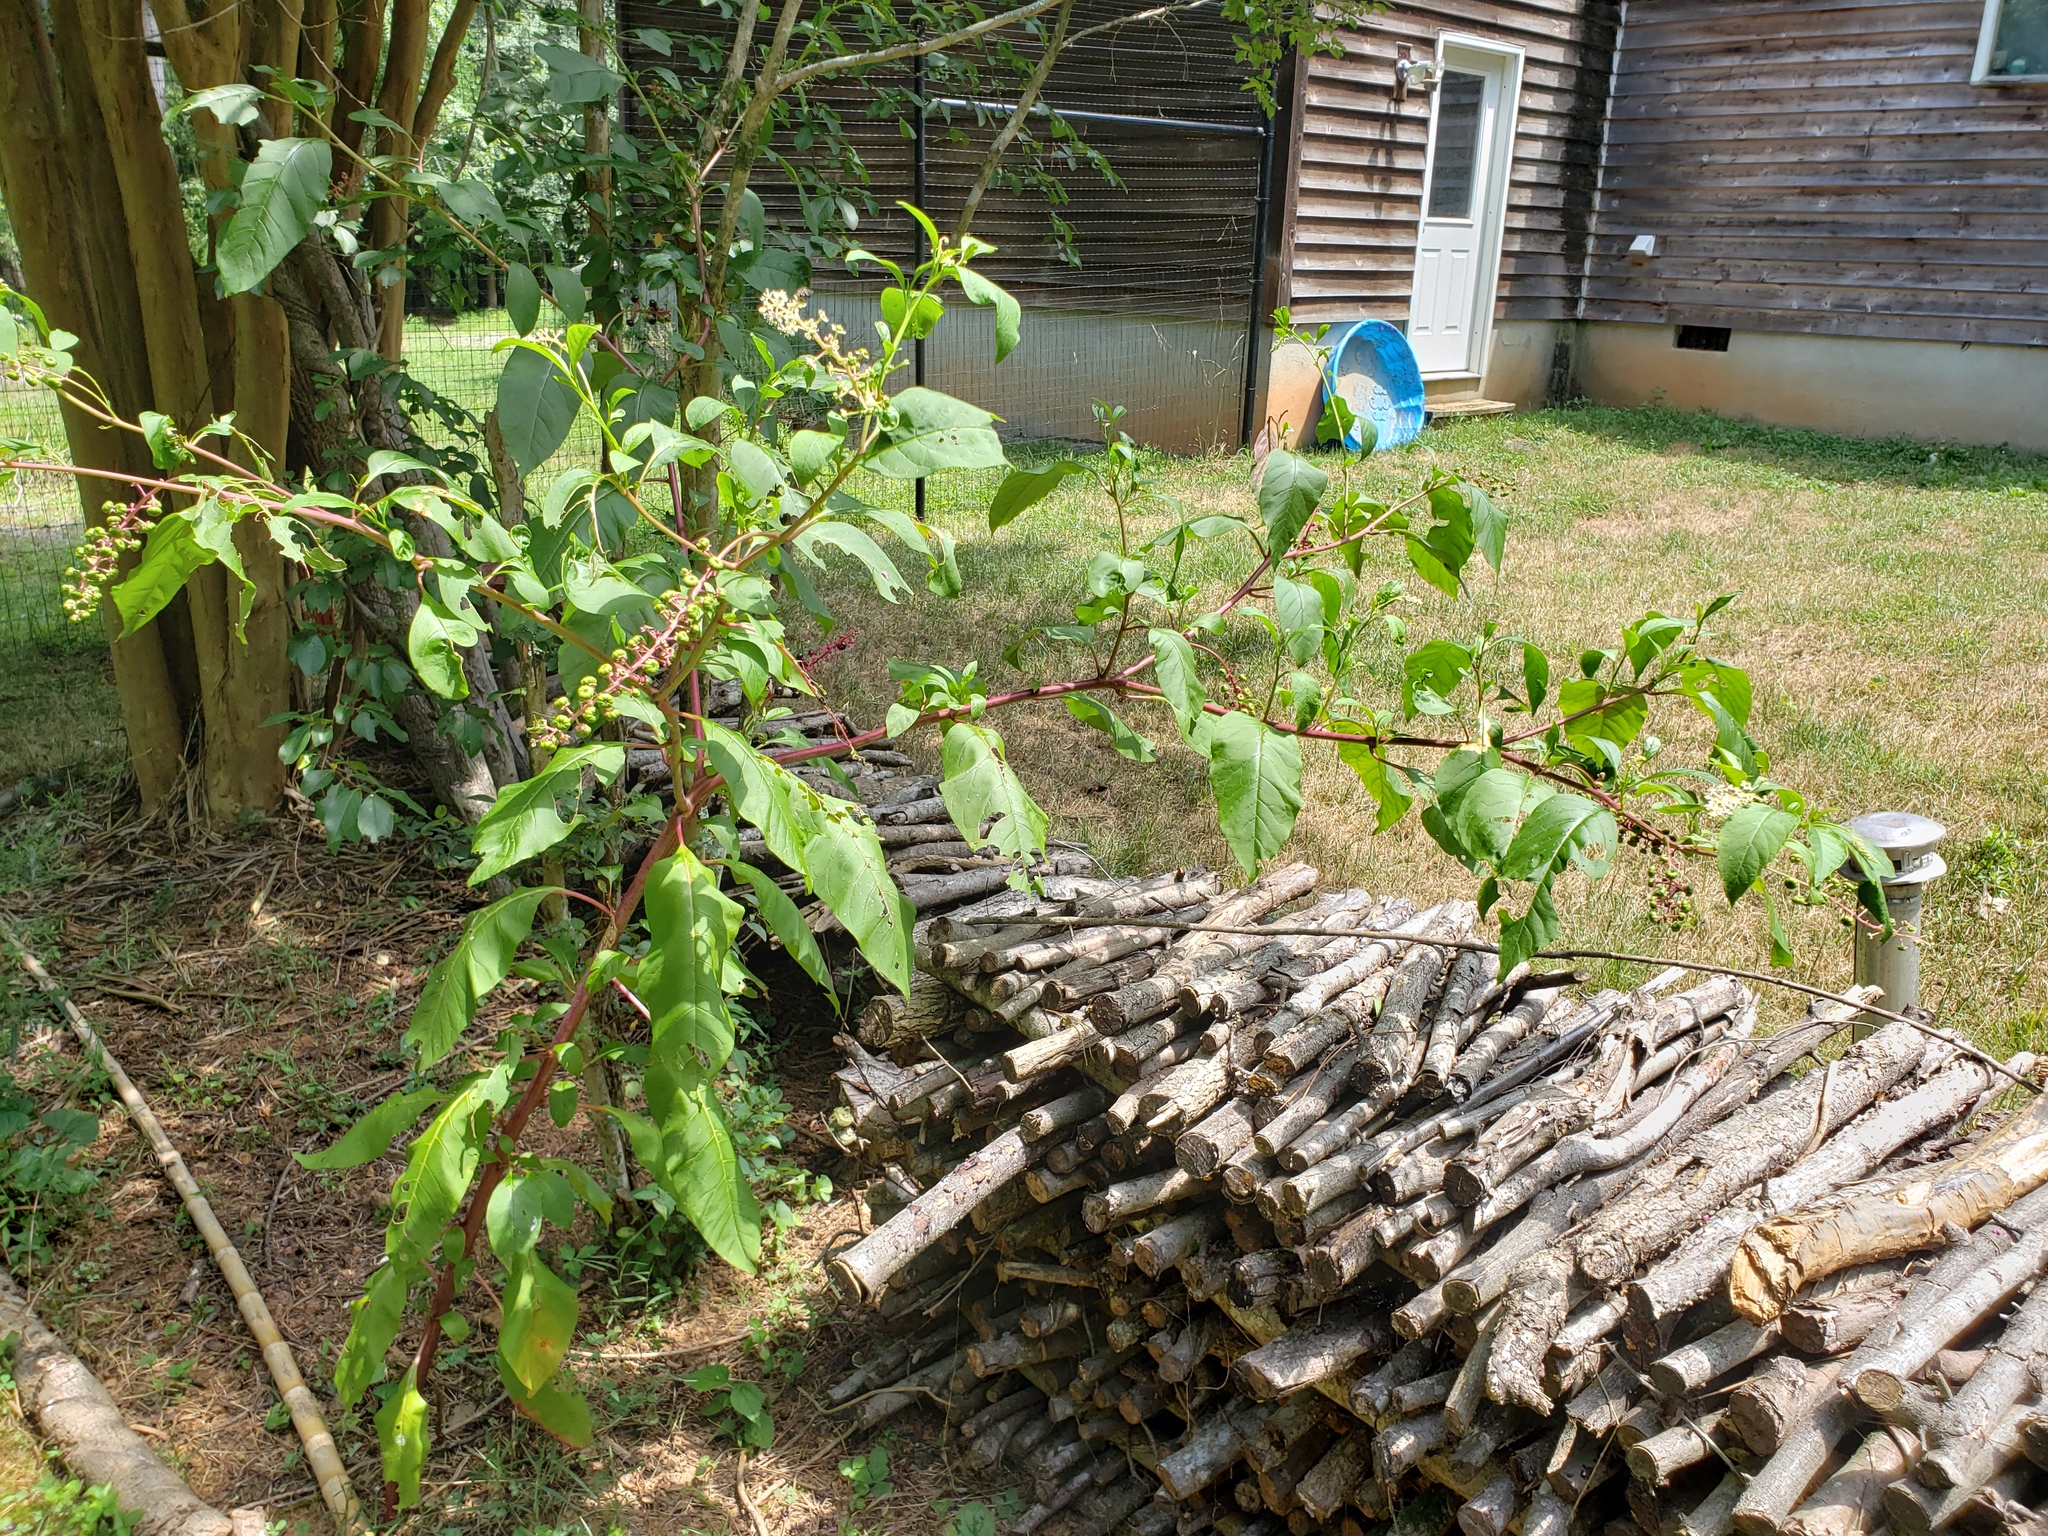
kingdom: Plantae
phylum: Tracheophyta
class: Magnoliopsida
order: Caryophyllales
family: Phytolaccaceae
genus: Phytolacca
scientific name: Phytolacca americana
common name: American pokeweed
